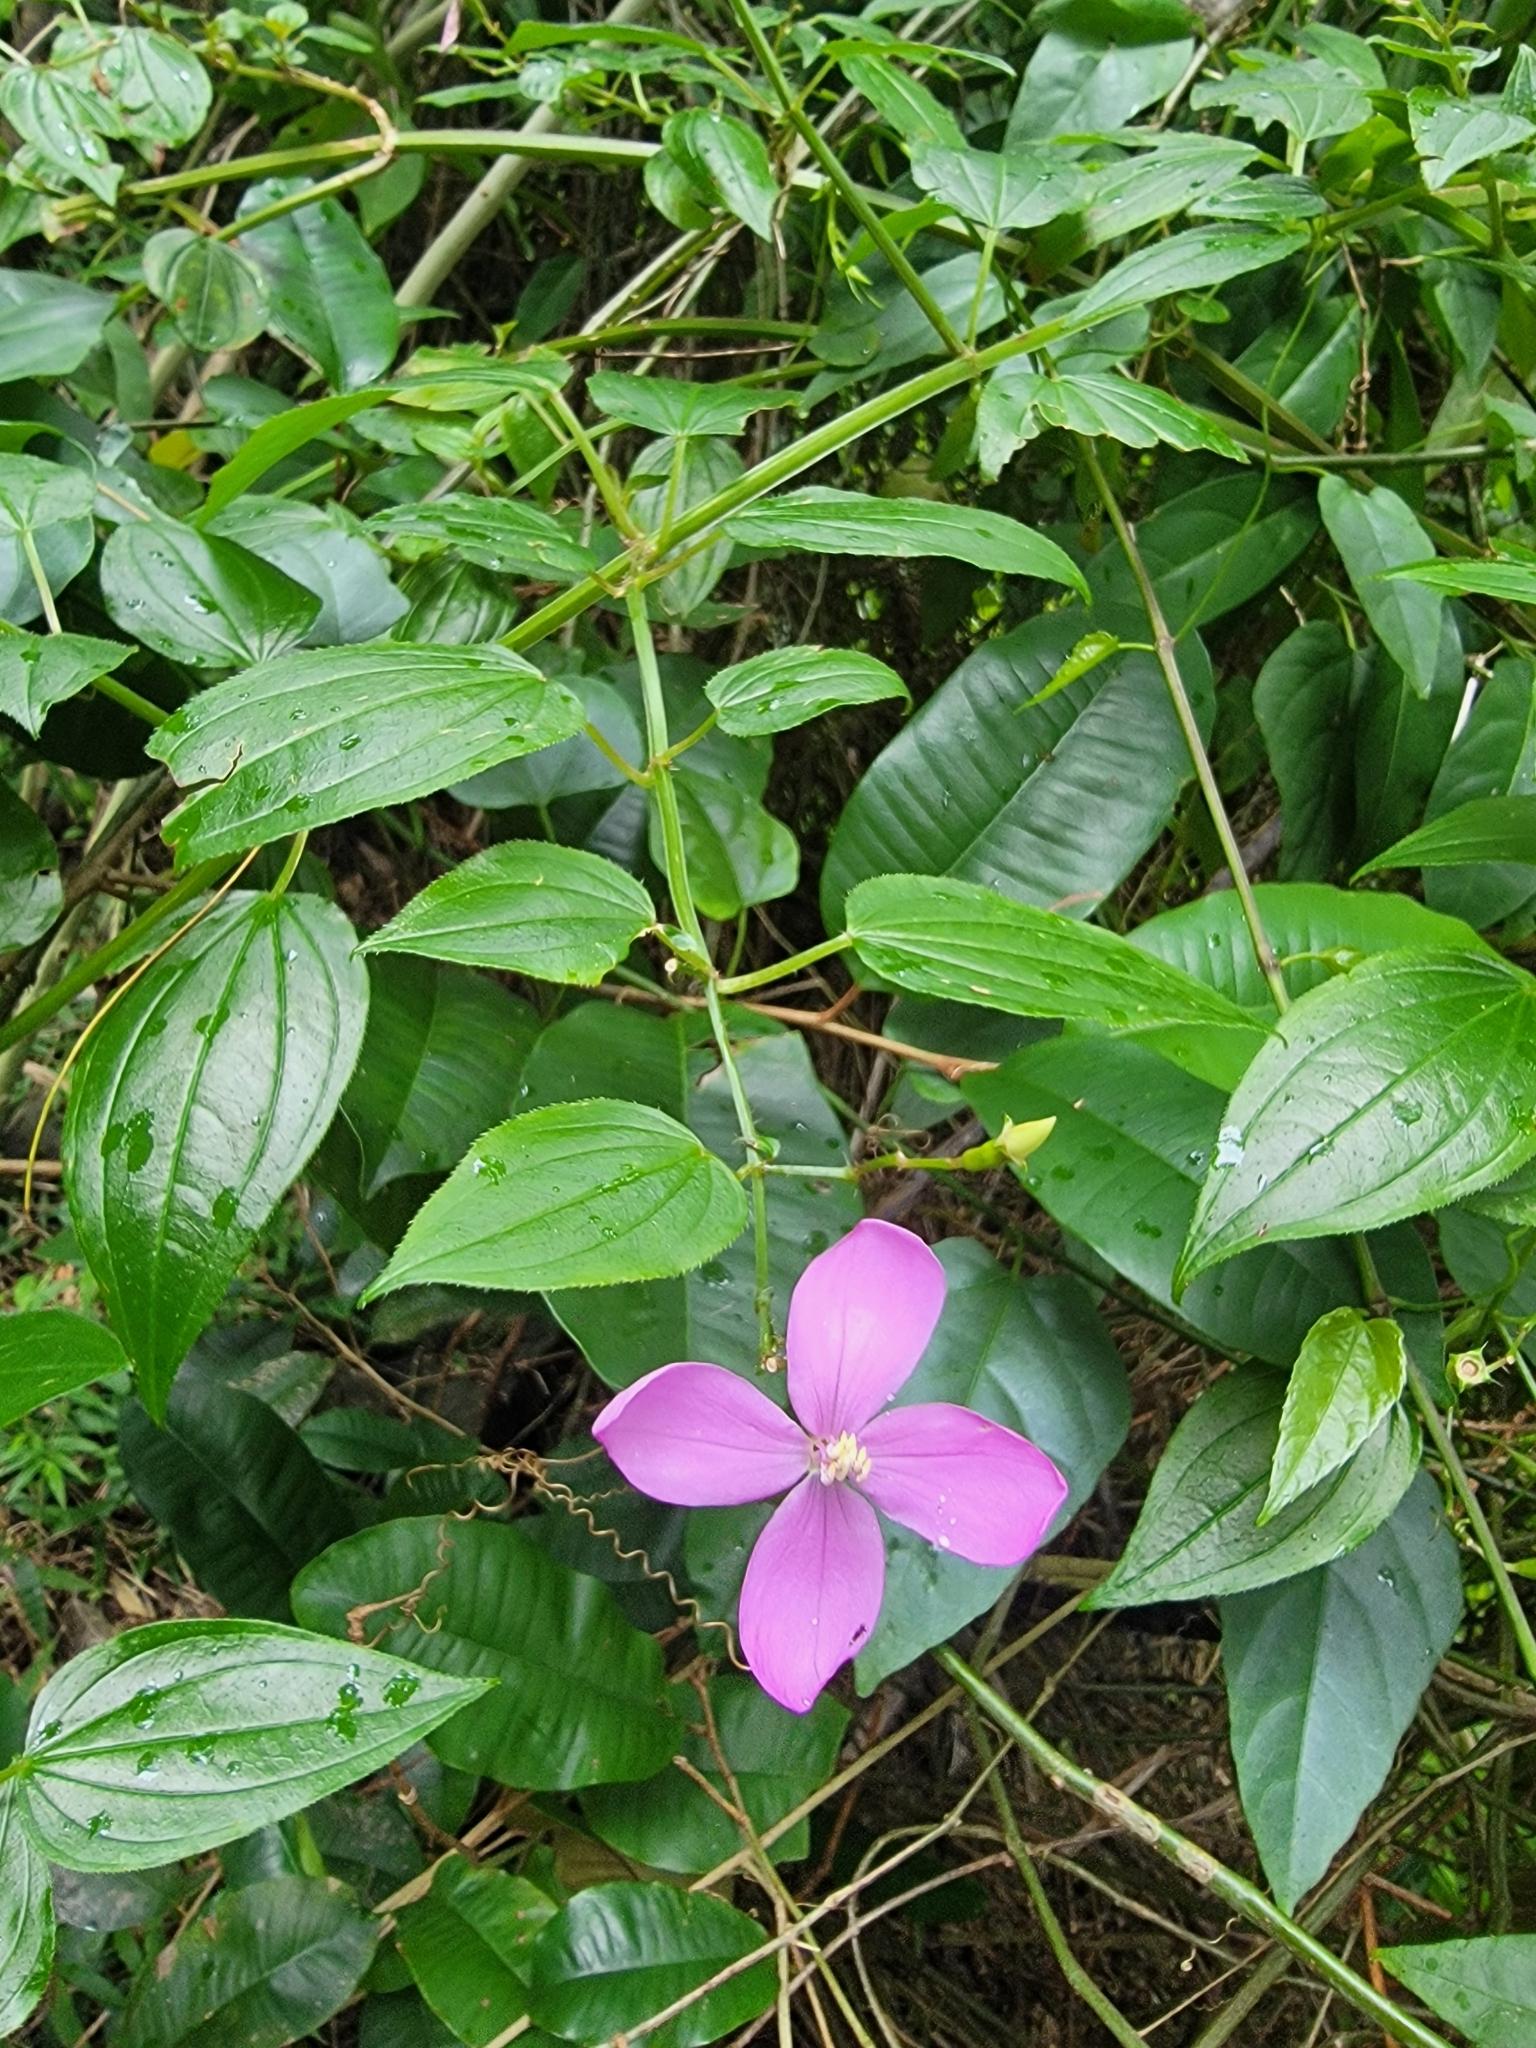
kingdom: Plantae
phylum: Tracheophyta
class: Magnoliopsida
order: Myrtales
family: Melastomataceae
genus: Arthrostemma
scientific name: Arthrostemma ciliatum
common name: Everblooming eavender
